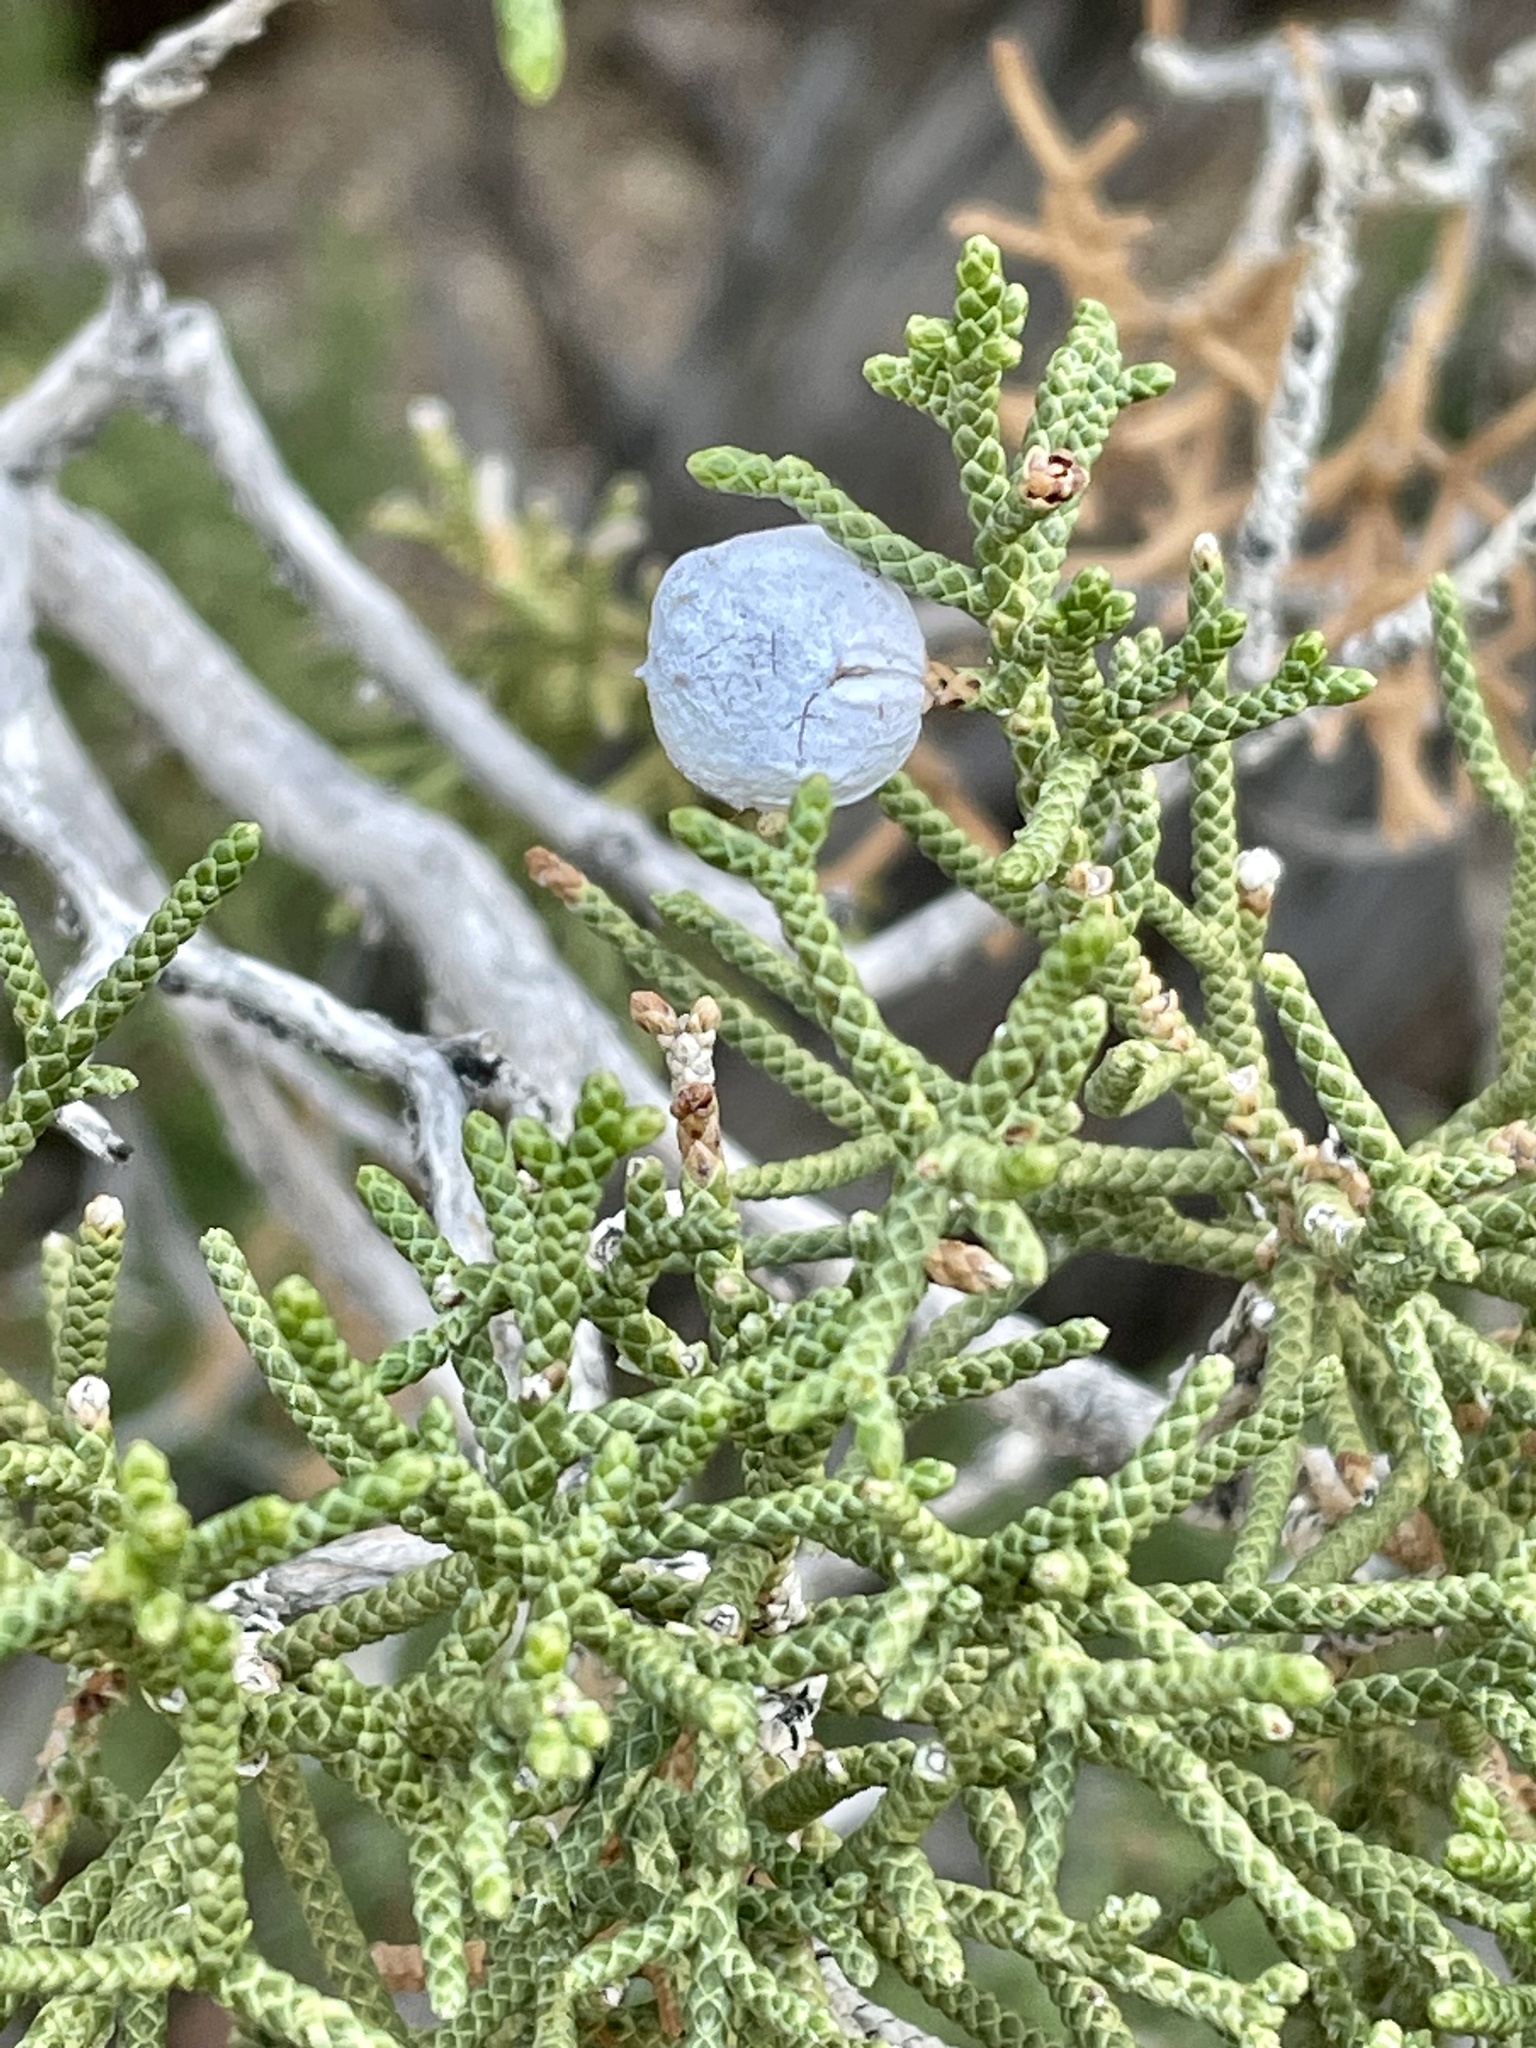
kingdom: Plantae
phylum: Tracheophyta
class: Pinopsida
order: Pinales
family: Cupressaceae
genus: Juniperus
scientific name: Juniperus californica
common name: California juniper
